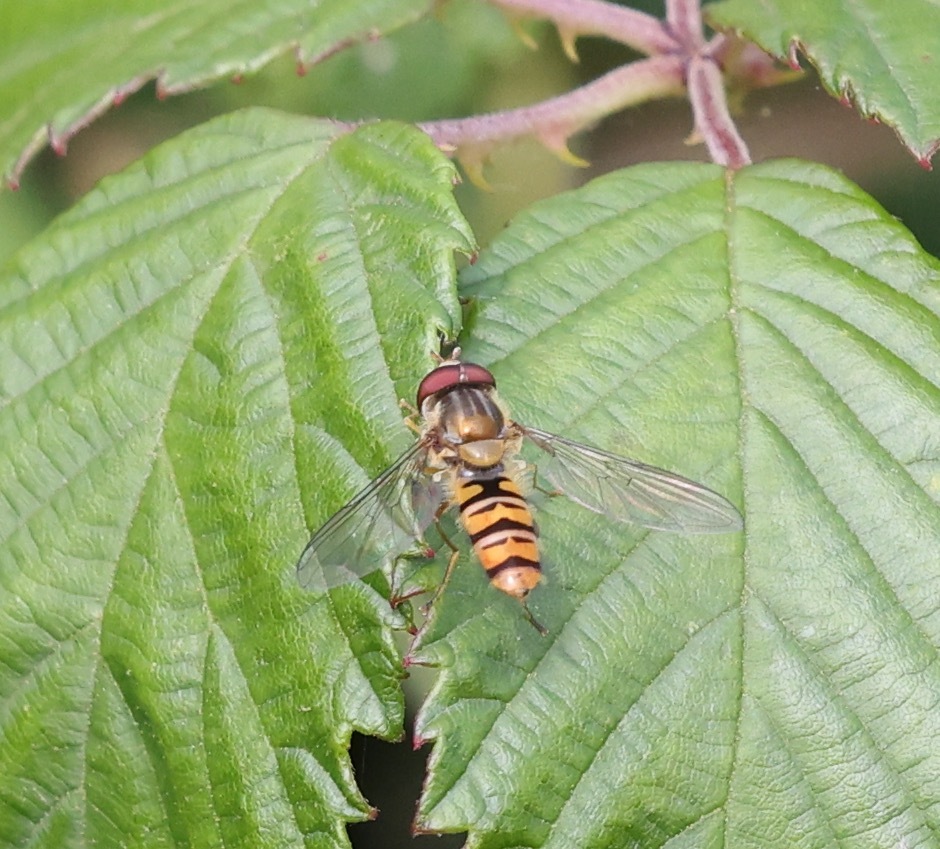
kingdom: Animalia
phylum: Arthropoda
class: Insecta
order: Diptera
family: Syrphidae
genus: Episyrphus
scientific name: Episyrphus balteatus
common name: Marmalade hoverfly
